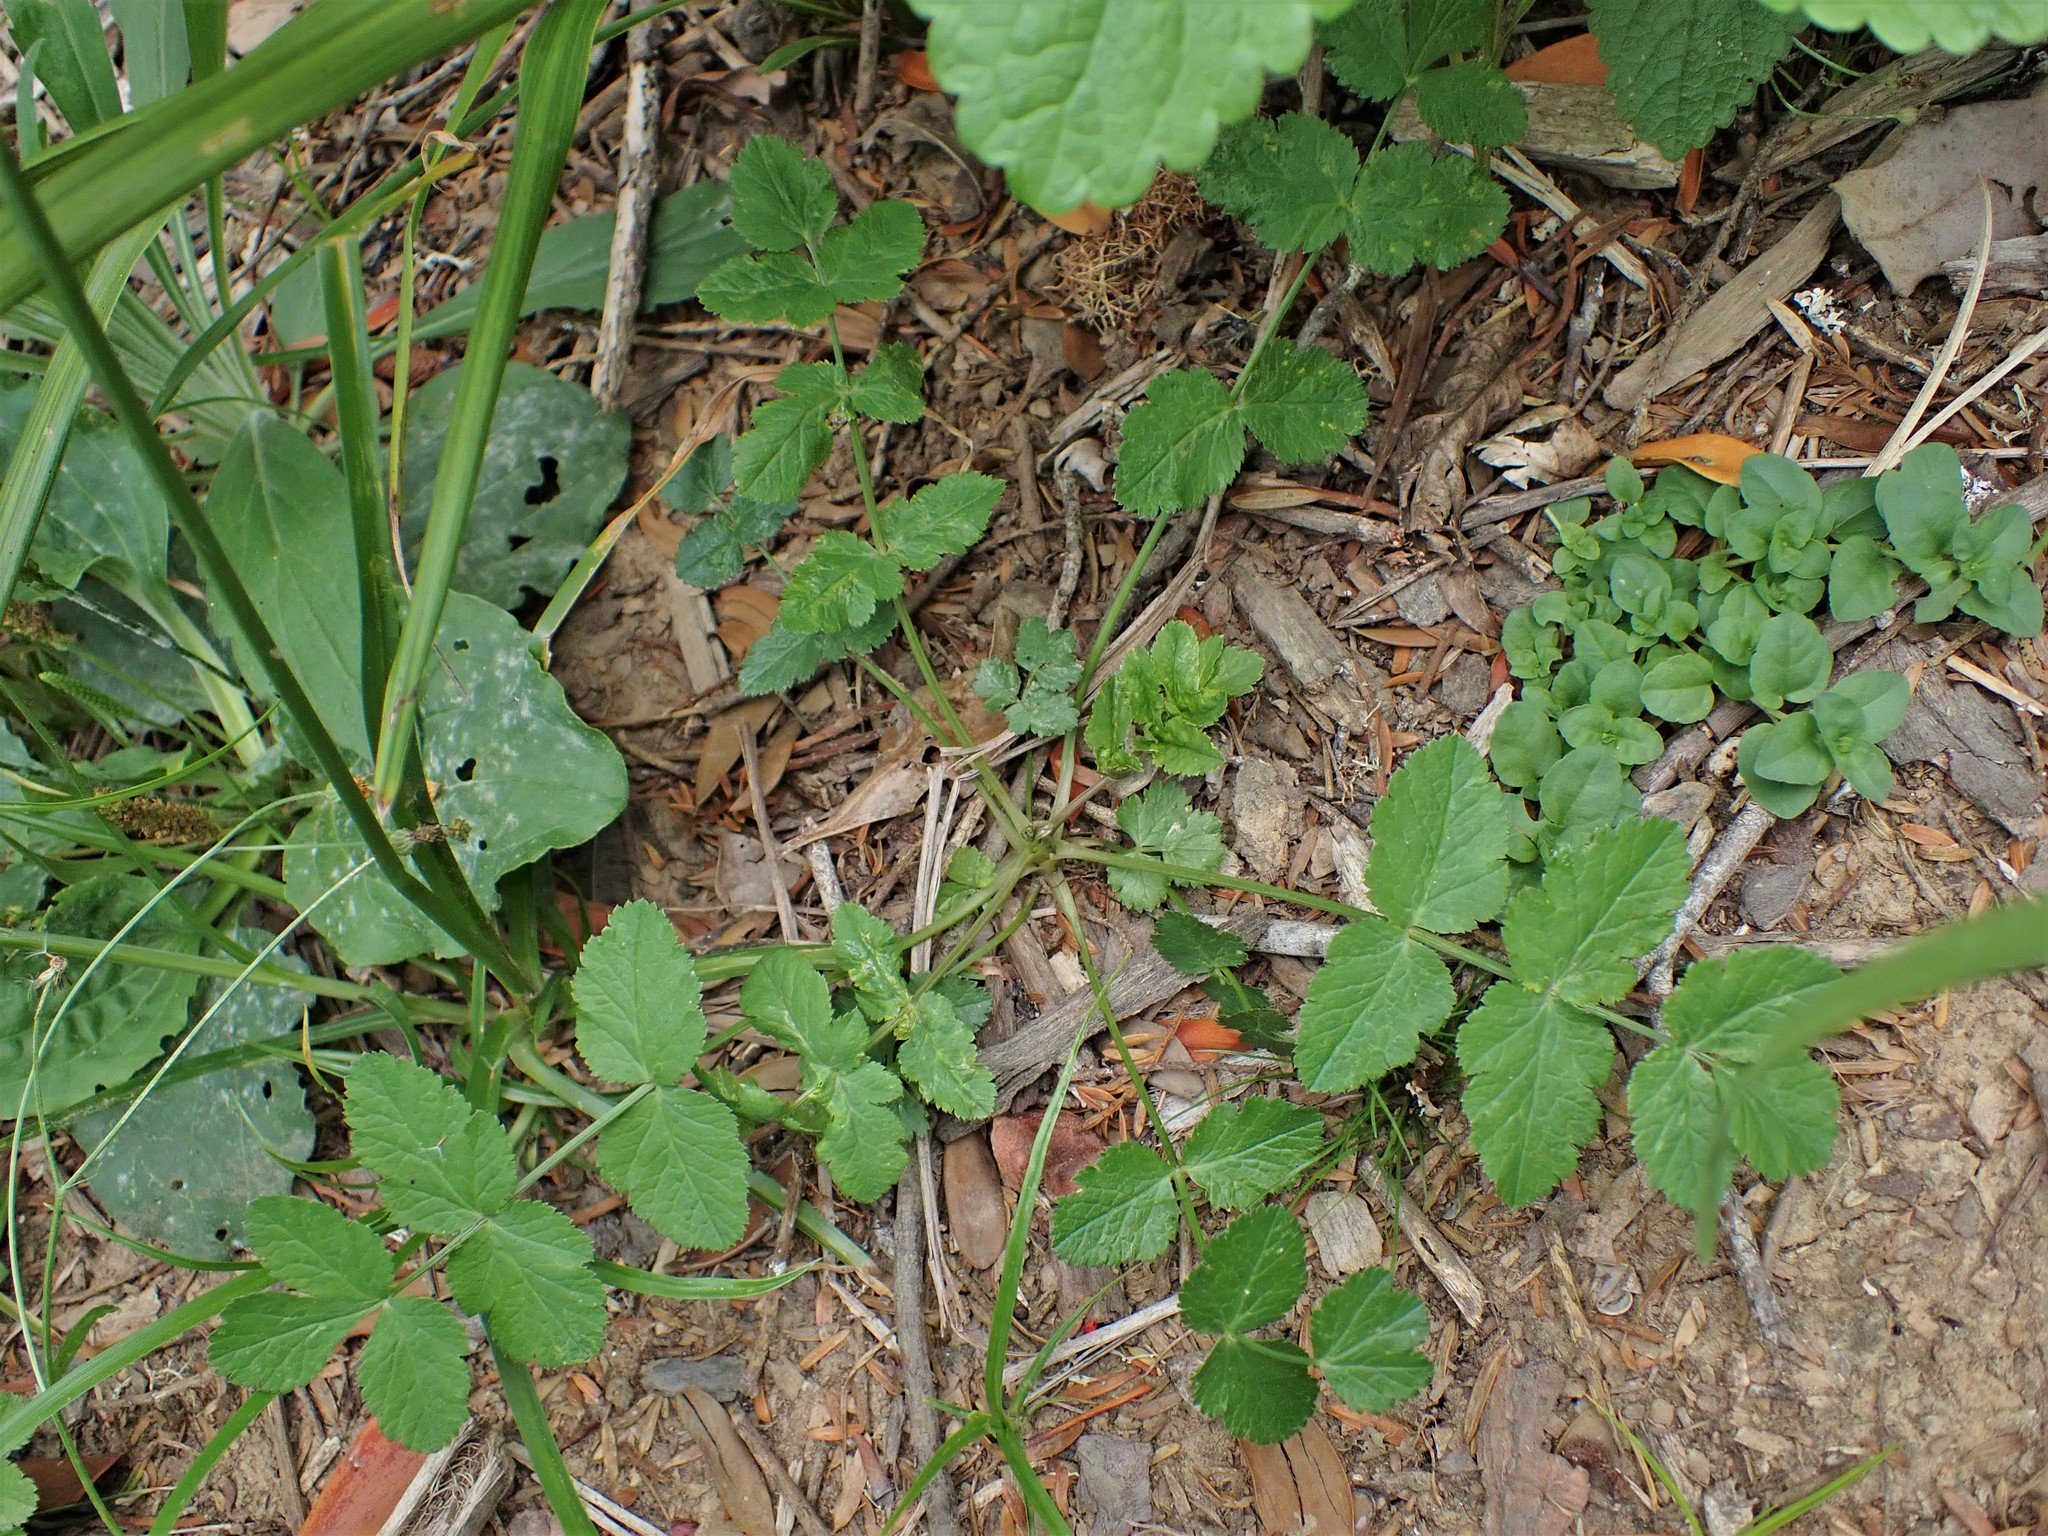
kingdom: Plantae
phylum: Tracheophyta
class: Magnoliopsida
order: Geraniales
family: Geraniaceae
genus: Erodium
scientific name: Erodium moschatum
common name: Musk stork's-bill
